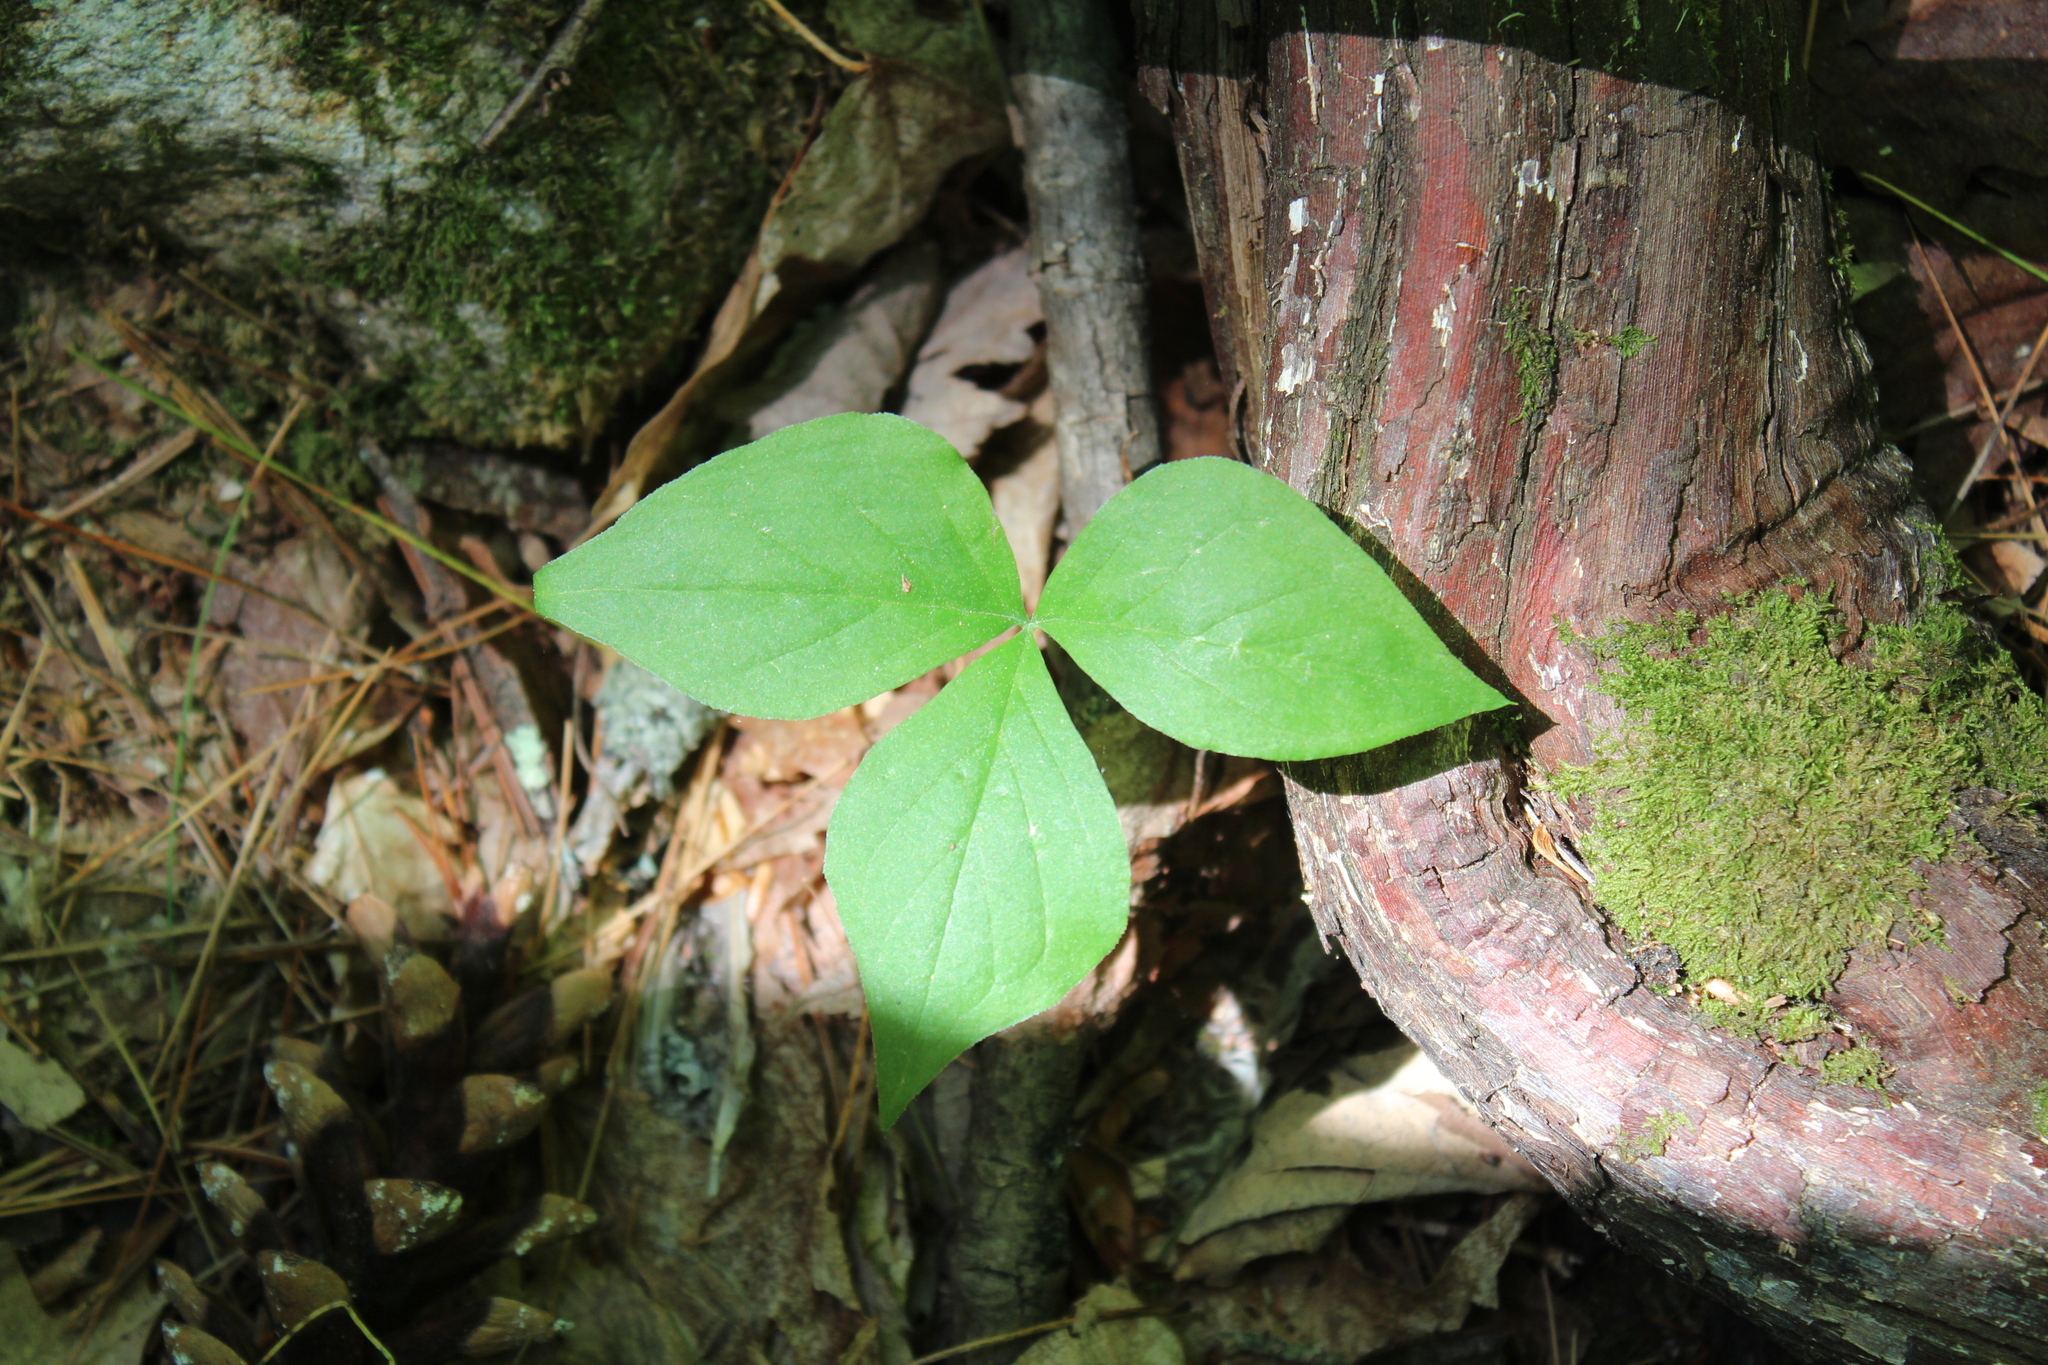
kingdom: Plantae
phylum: Tracheophyta
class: Liliopsida
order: Alismatales
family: Araceae
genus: Arisaema
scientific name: Arisaema triphyllum
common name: Jack-in-the-pulpit
